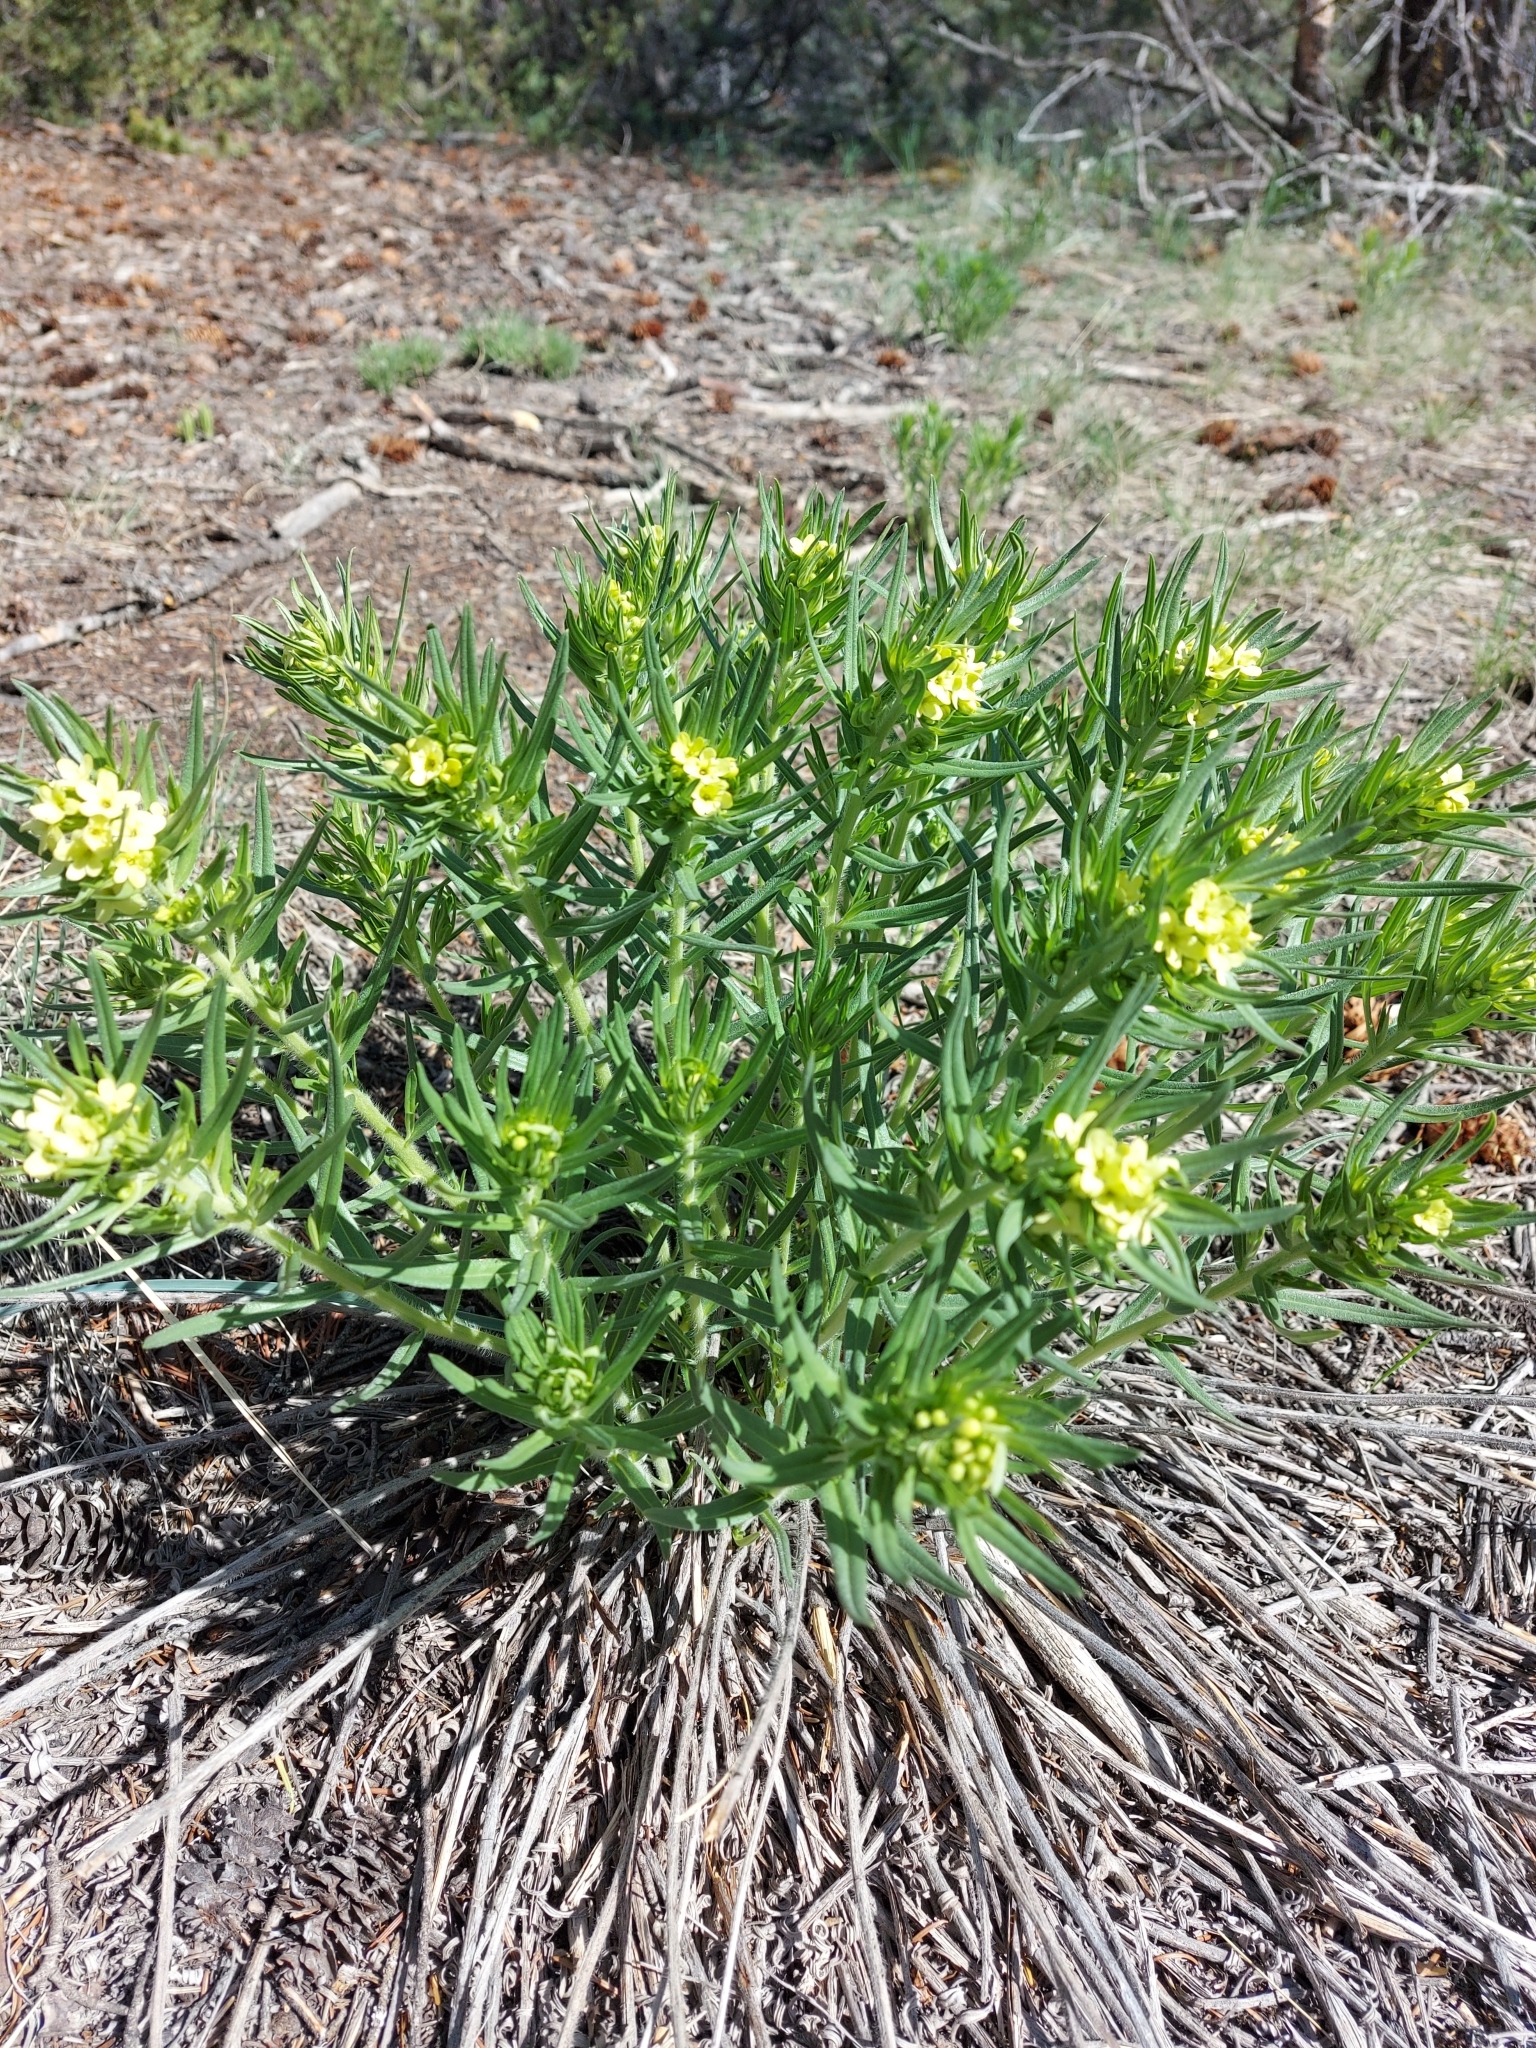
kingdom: Plantae
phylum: Tracheophyta
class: Magnoliopsida
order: Boraginales
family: Boraginaceae
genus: Lithospermum
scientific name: Lithospermum ruderale
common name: Western gromwell
